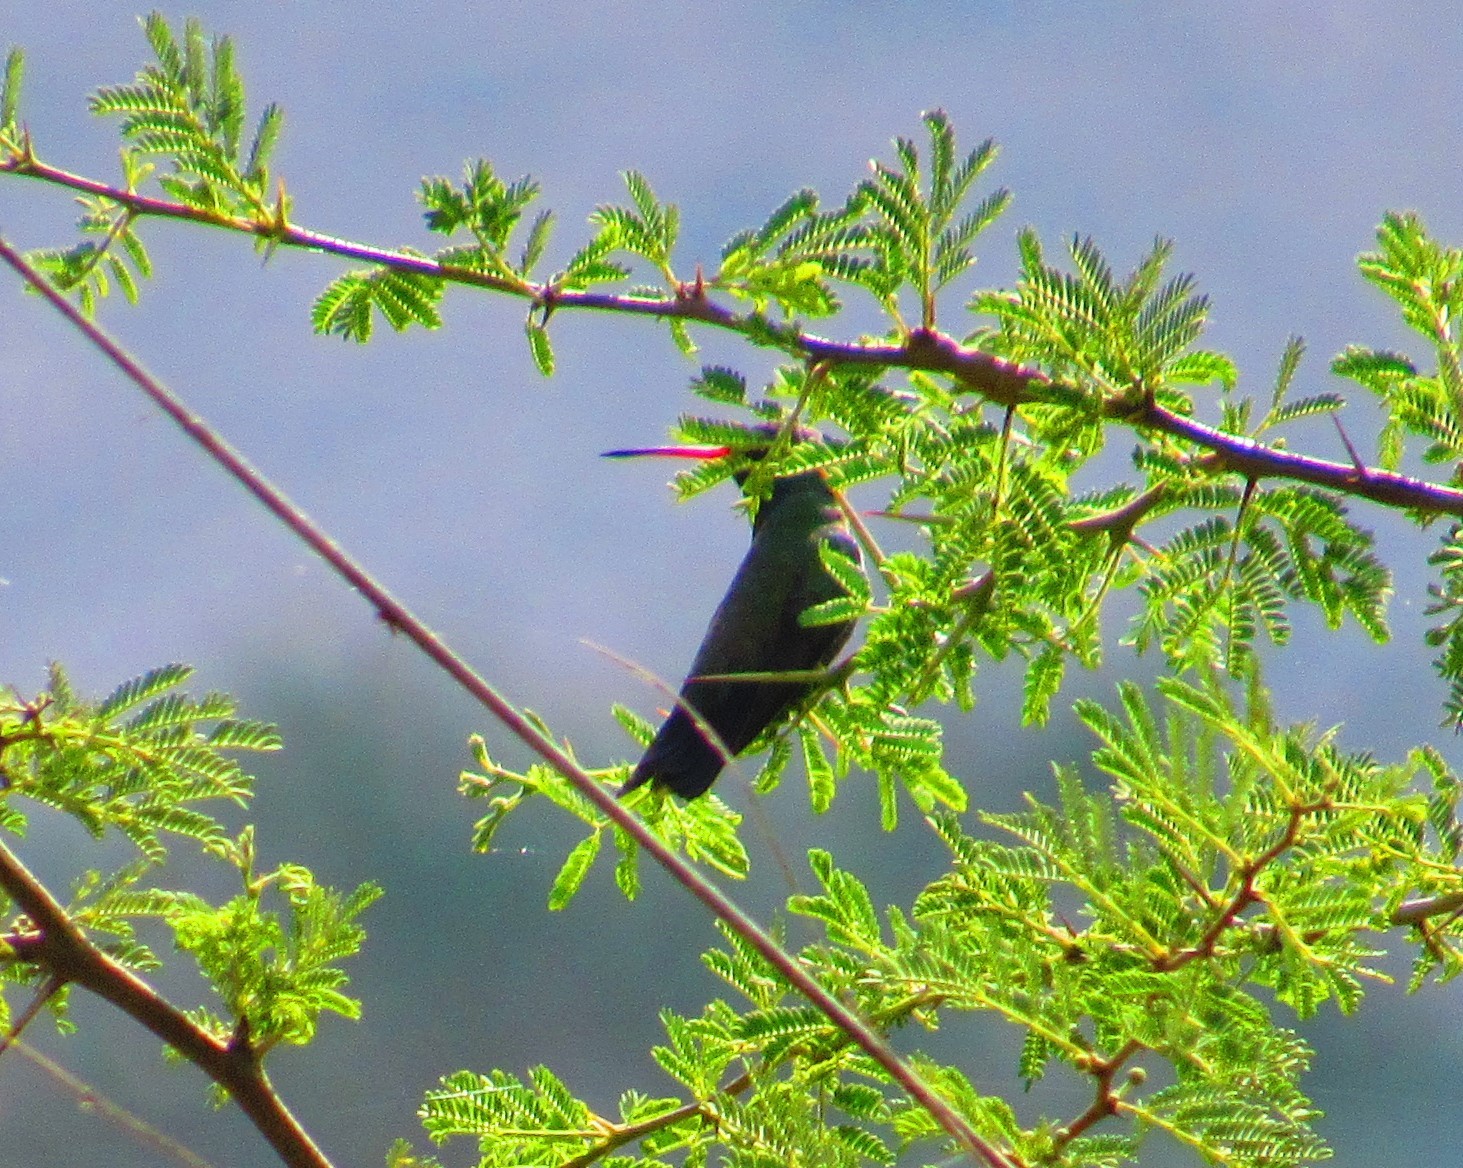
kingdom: Animalia
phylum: Chordata
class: Aves
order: Apodiformes
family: Trochilidae
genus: Cynanthus
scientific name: Cynanthus latirostris
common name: Broad-billed hummingbird
